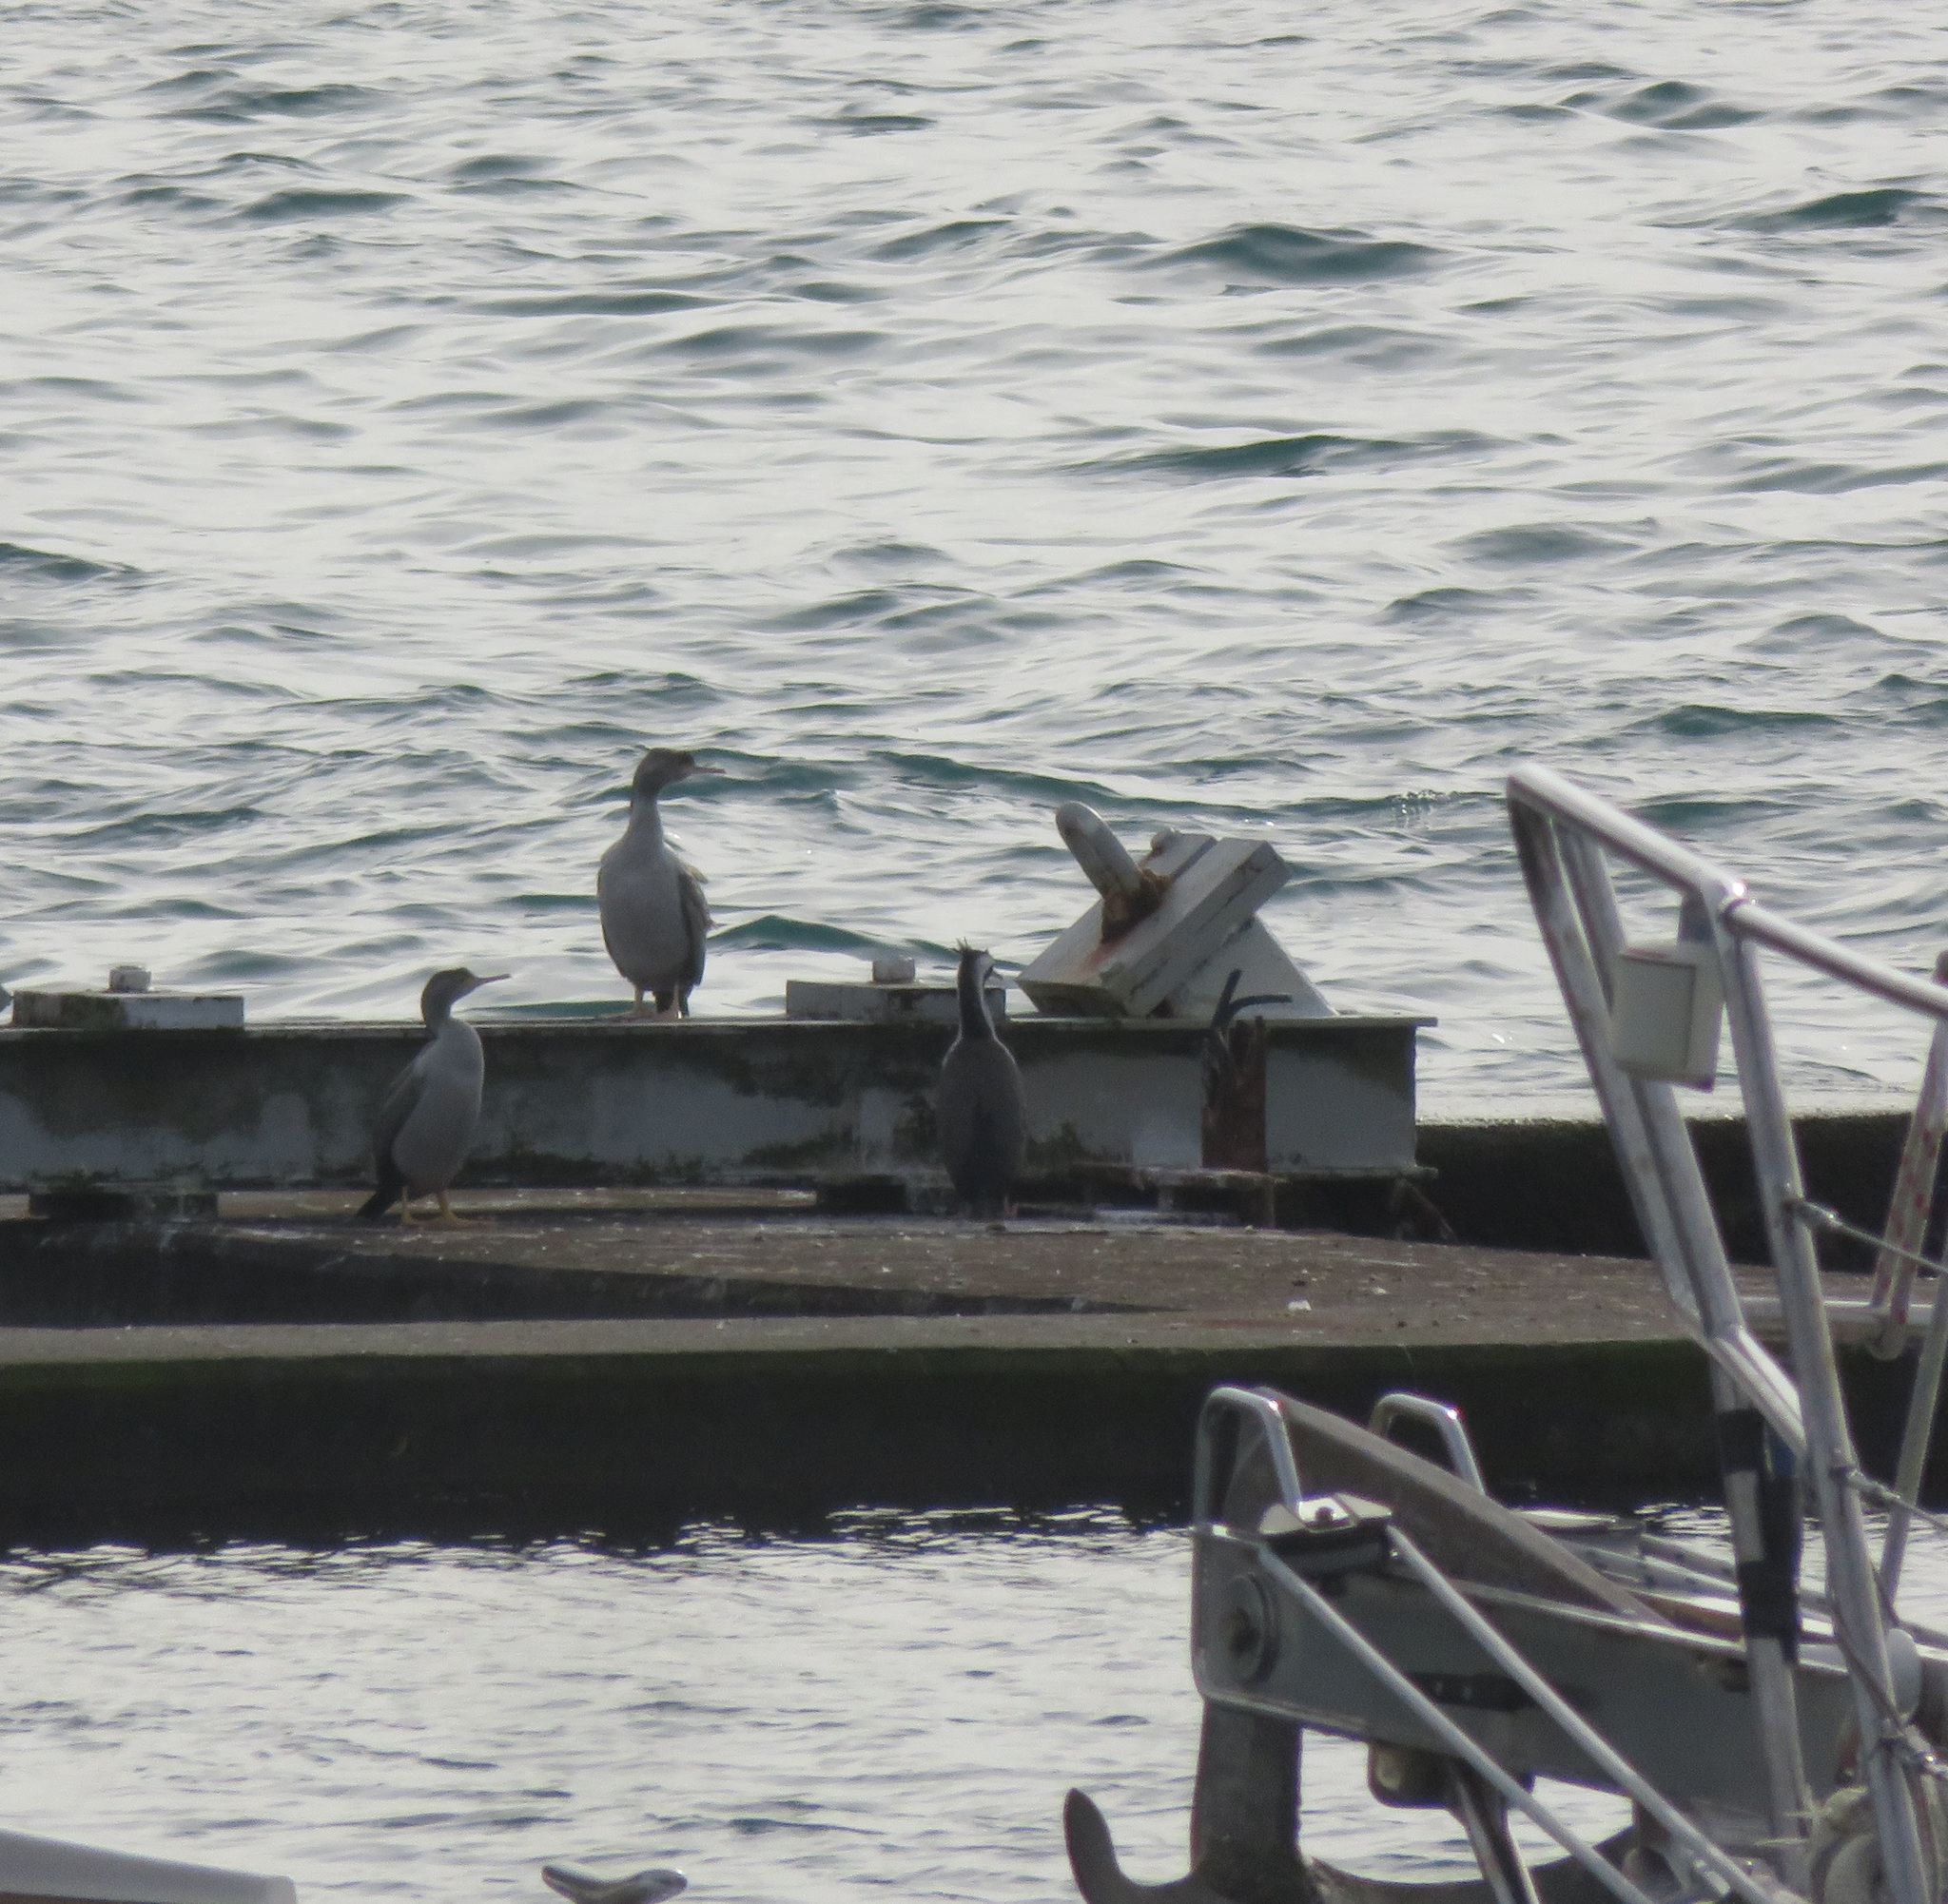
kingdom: Animalia
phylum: Chordata
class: Aves
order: Suliformes
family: Phalacrocoracidae
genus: Phalacrocorax
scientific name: Phalacrocorax punctatus
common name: Spotted shag
